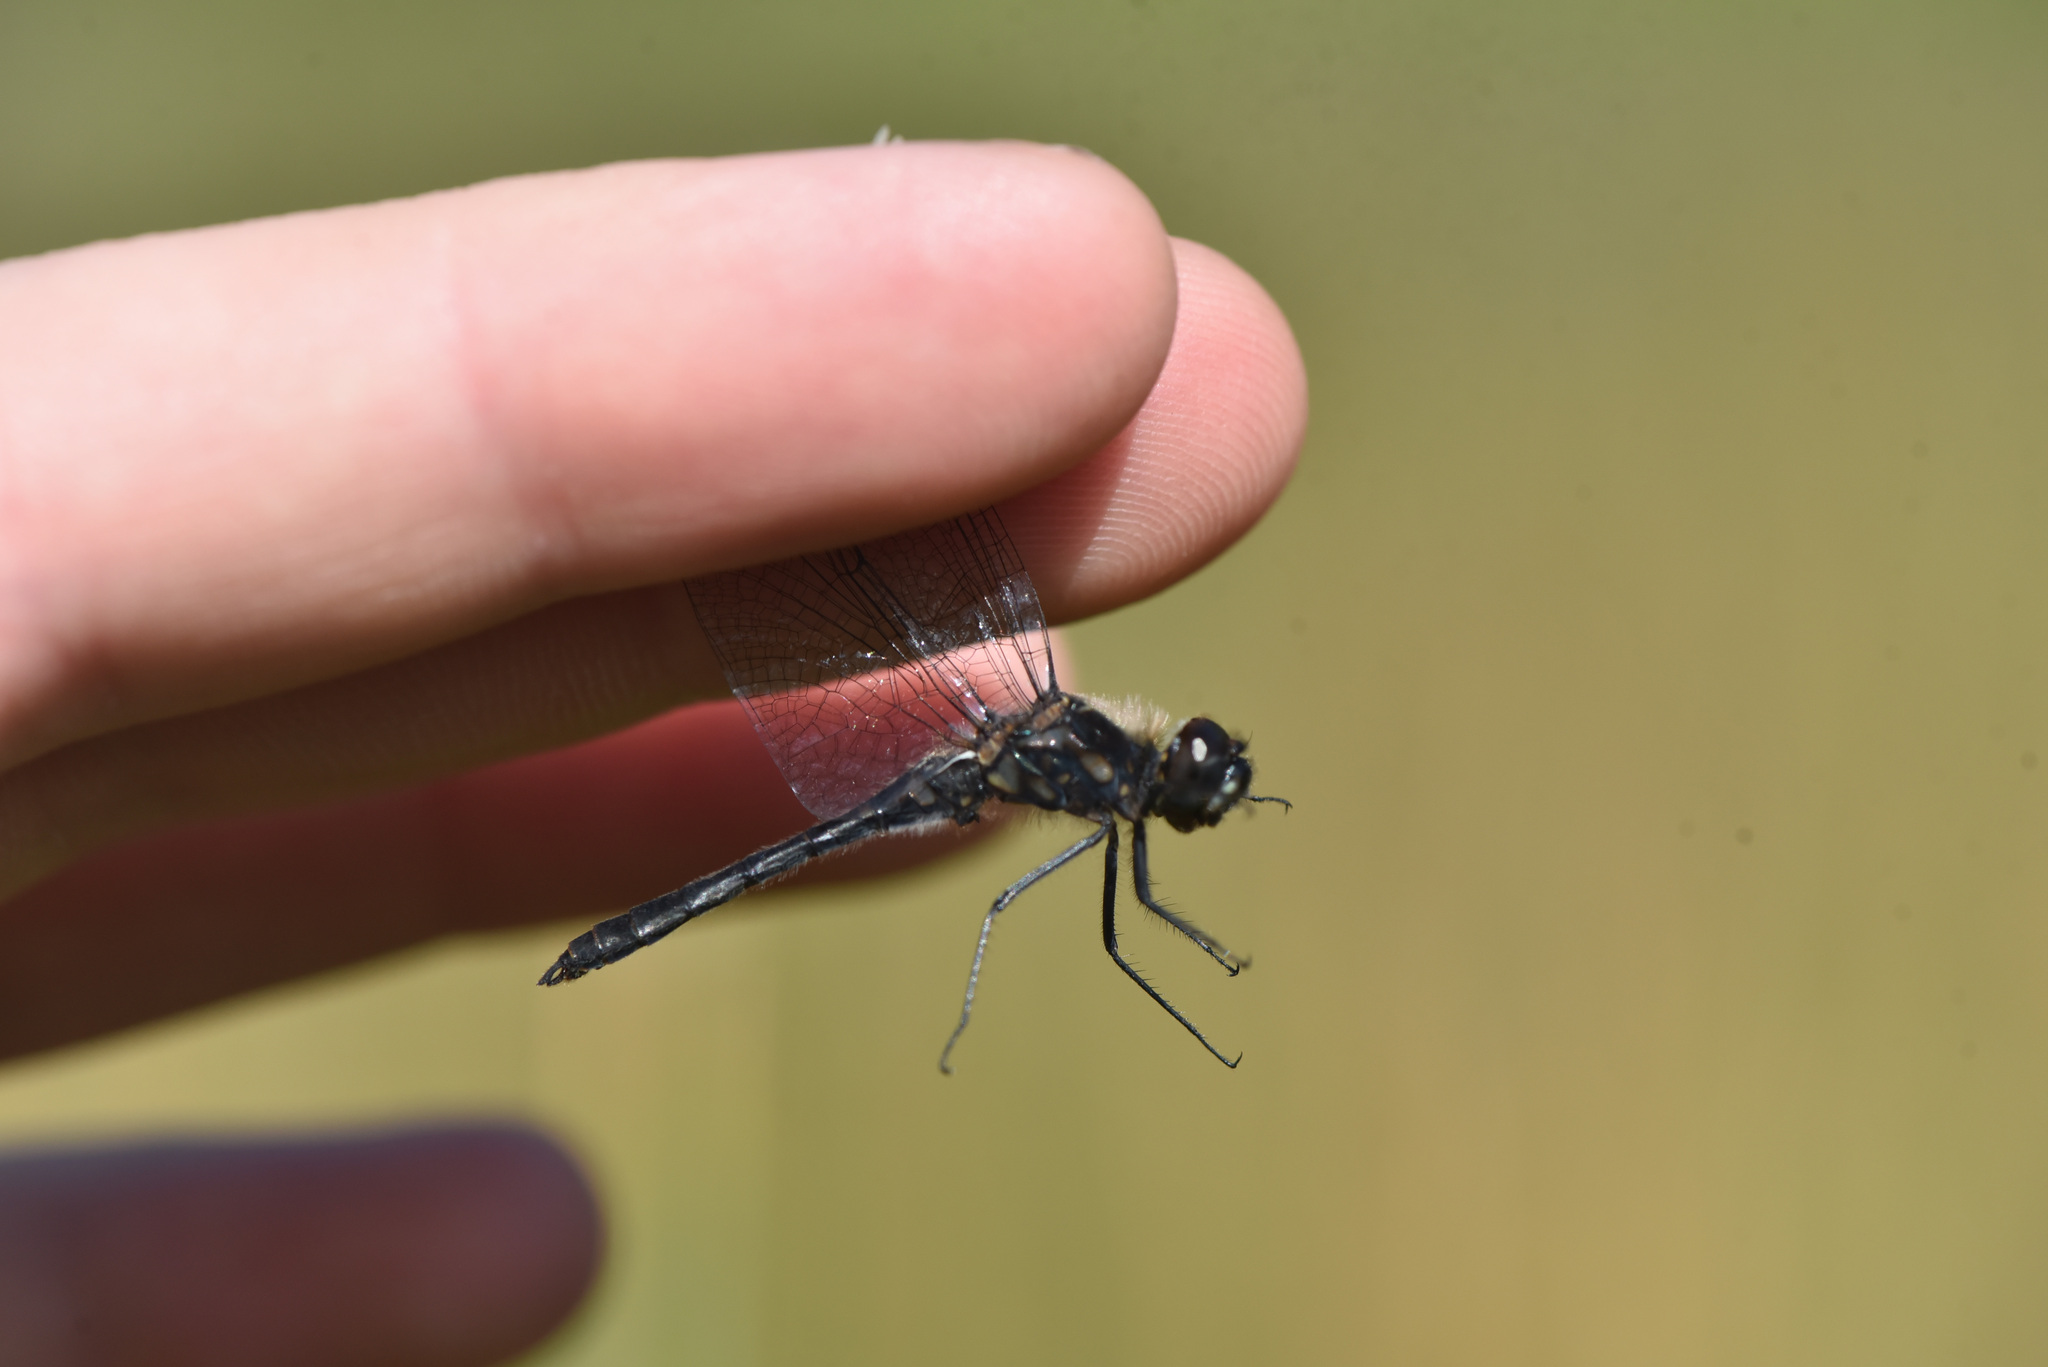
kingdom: Animalia
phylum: Arthropoda
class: Insecta
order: Odonata
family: Libellulidae
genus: Sympetrum
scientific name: Sympetrum danae
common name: Black darter
